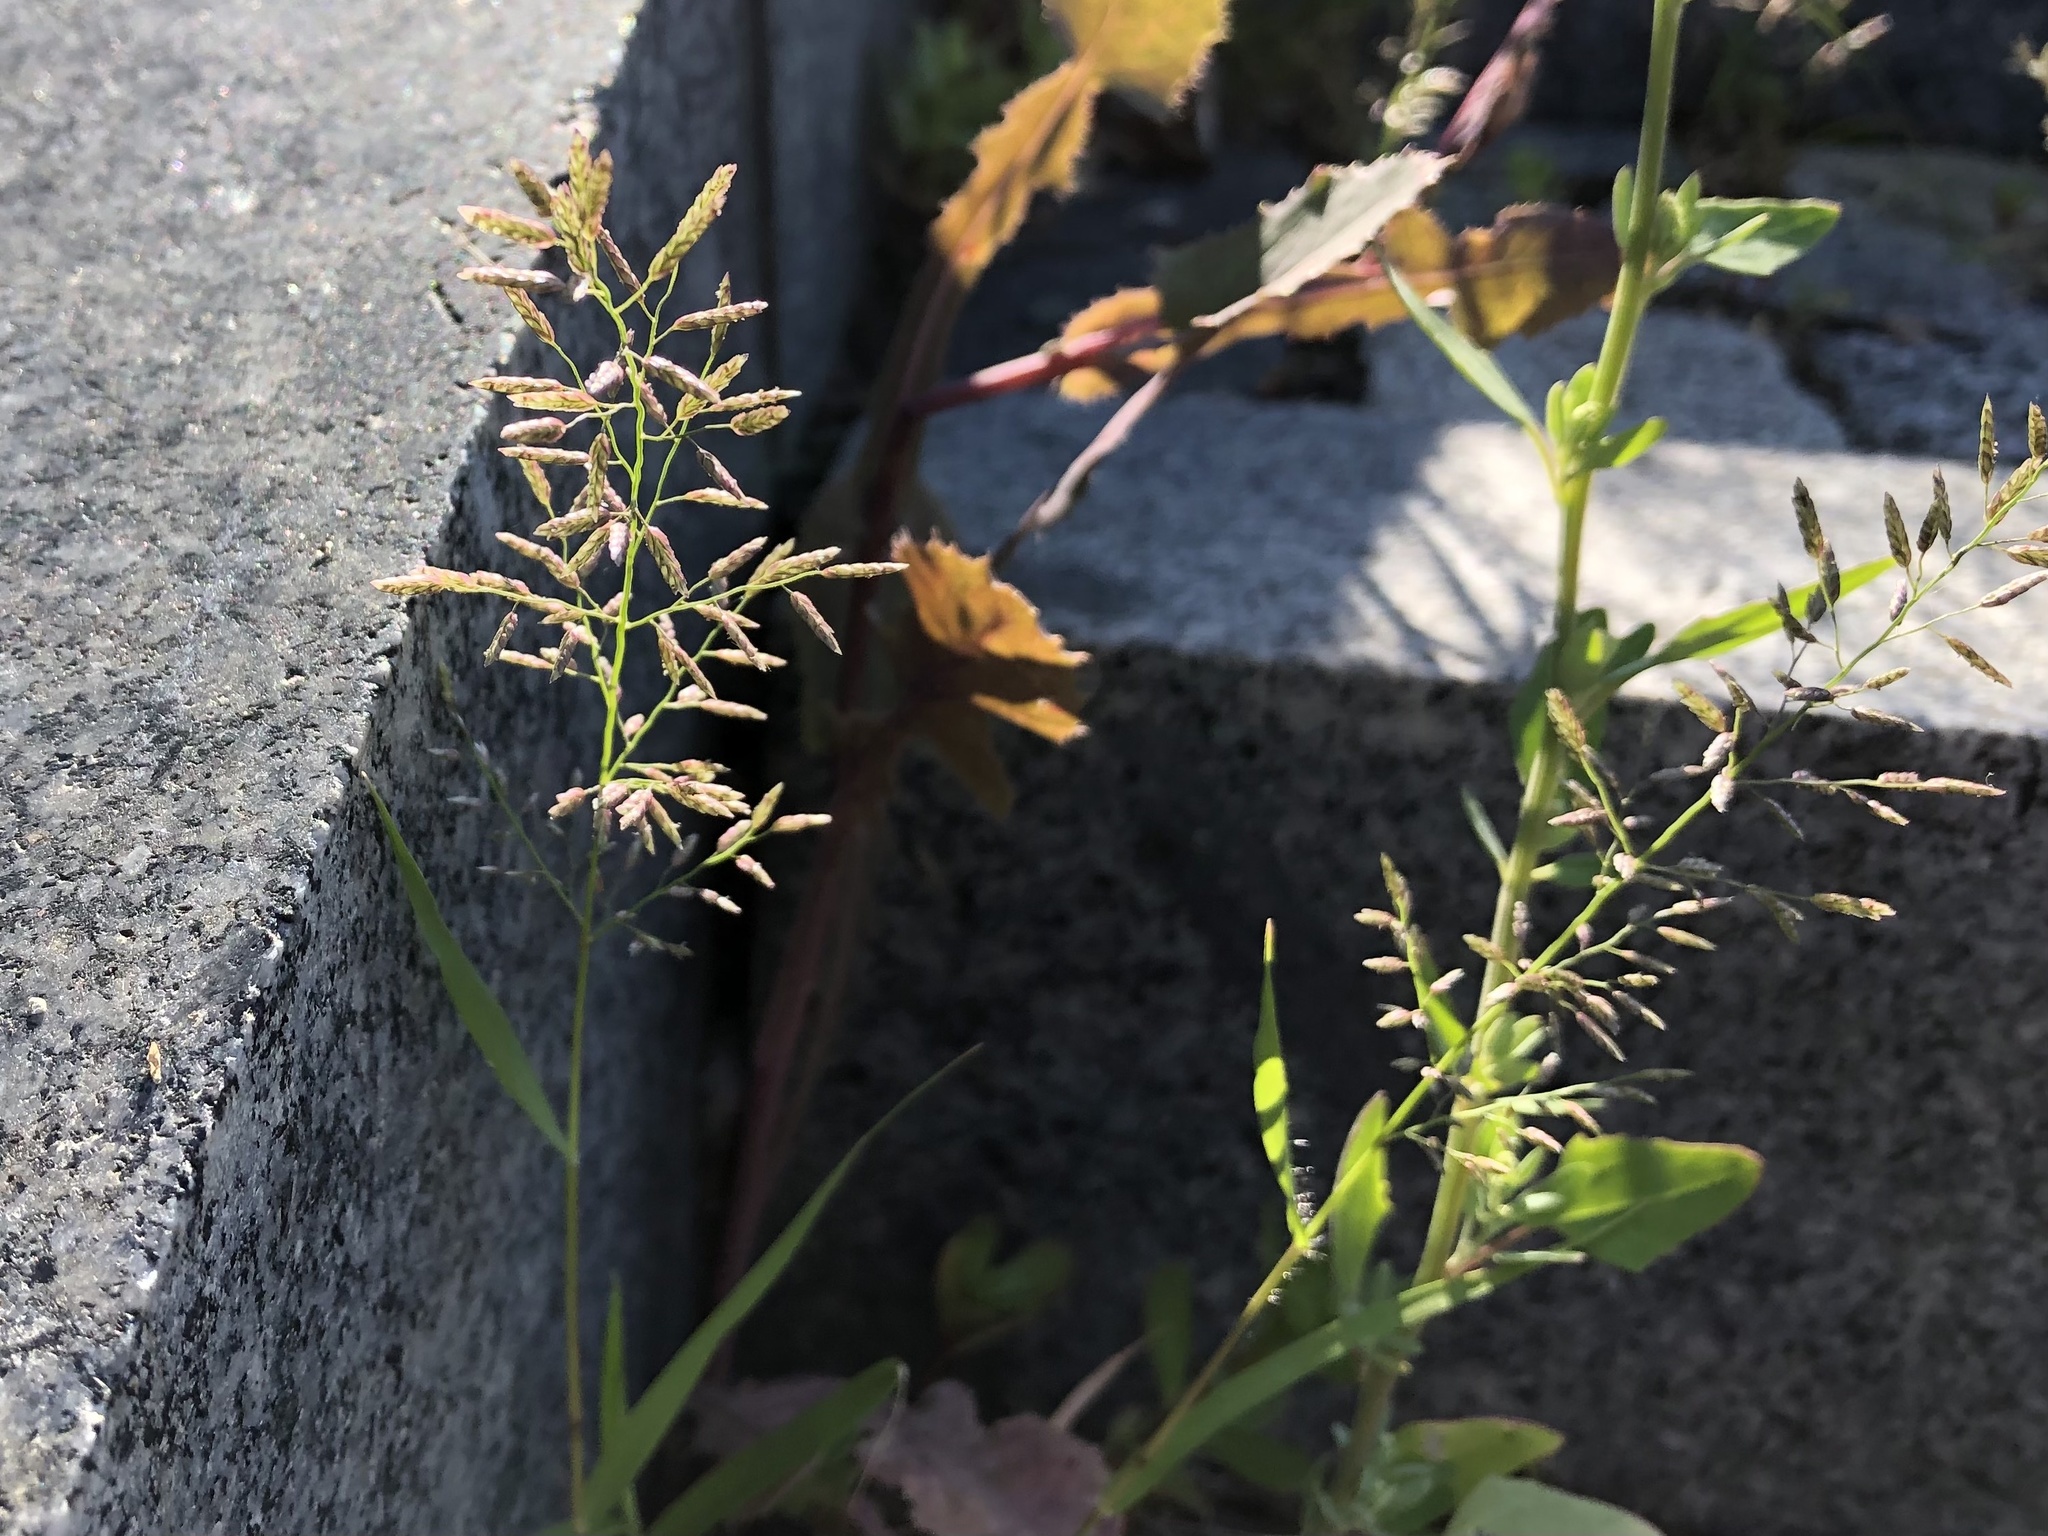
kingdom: Plantae
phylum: Tracheophyta
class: Liliopsida
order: Poales
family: Poaceae
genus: Eragrostis
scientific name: Eragrostis minor
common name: Small love-grass
